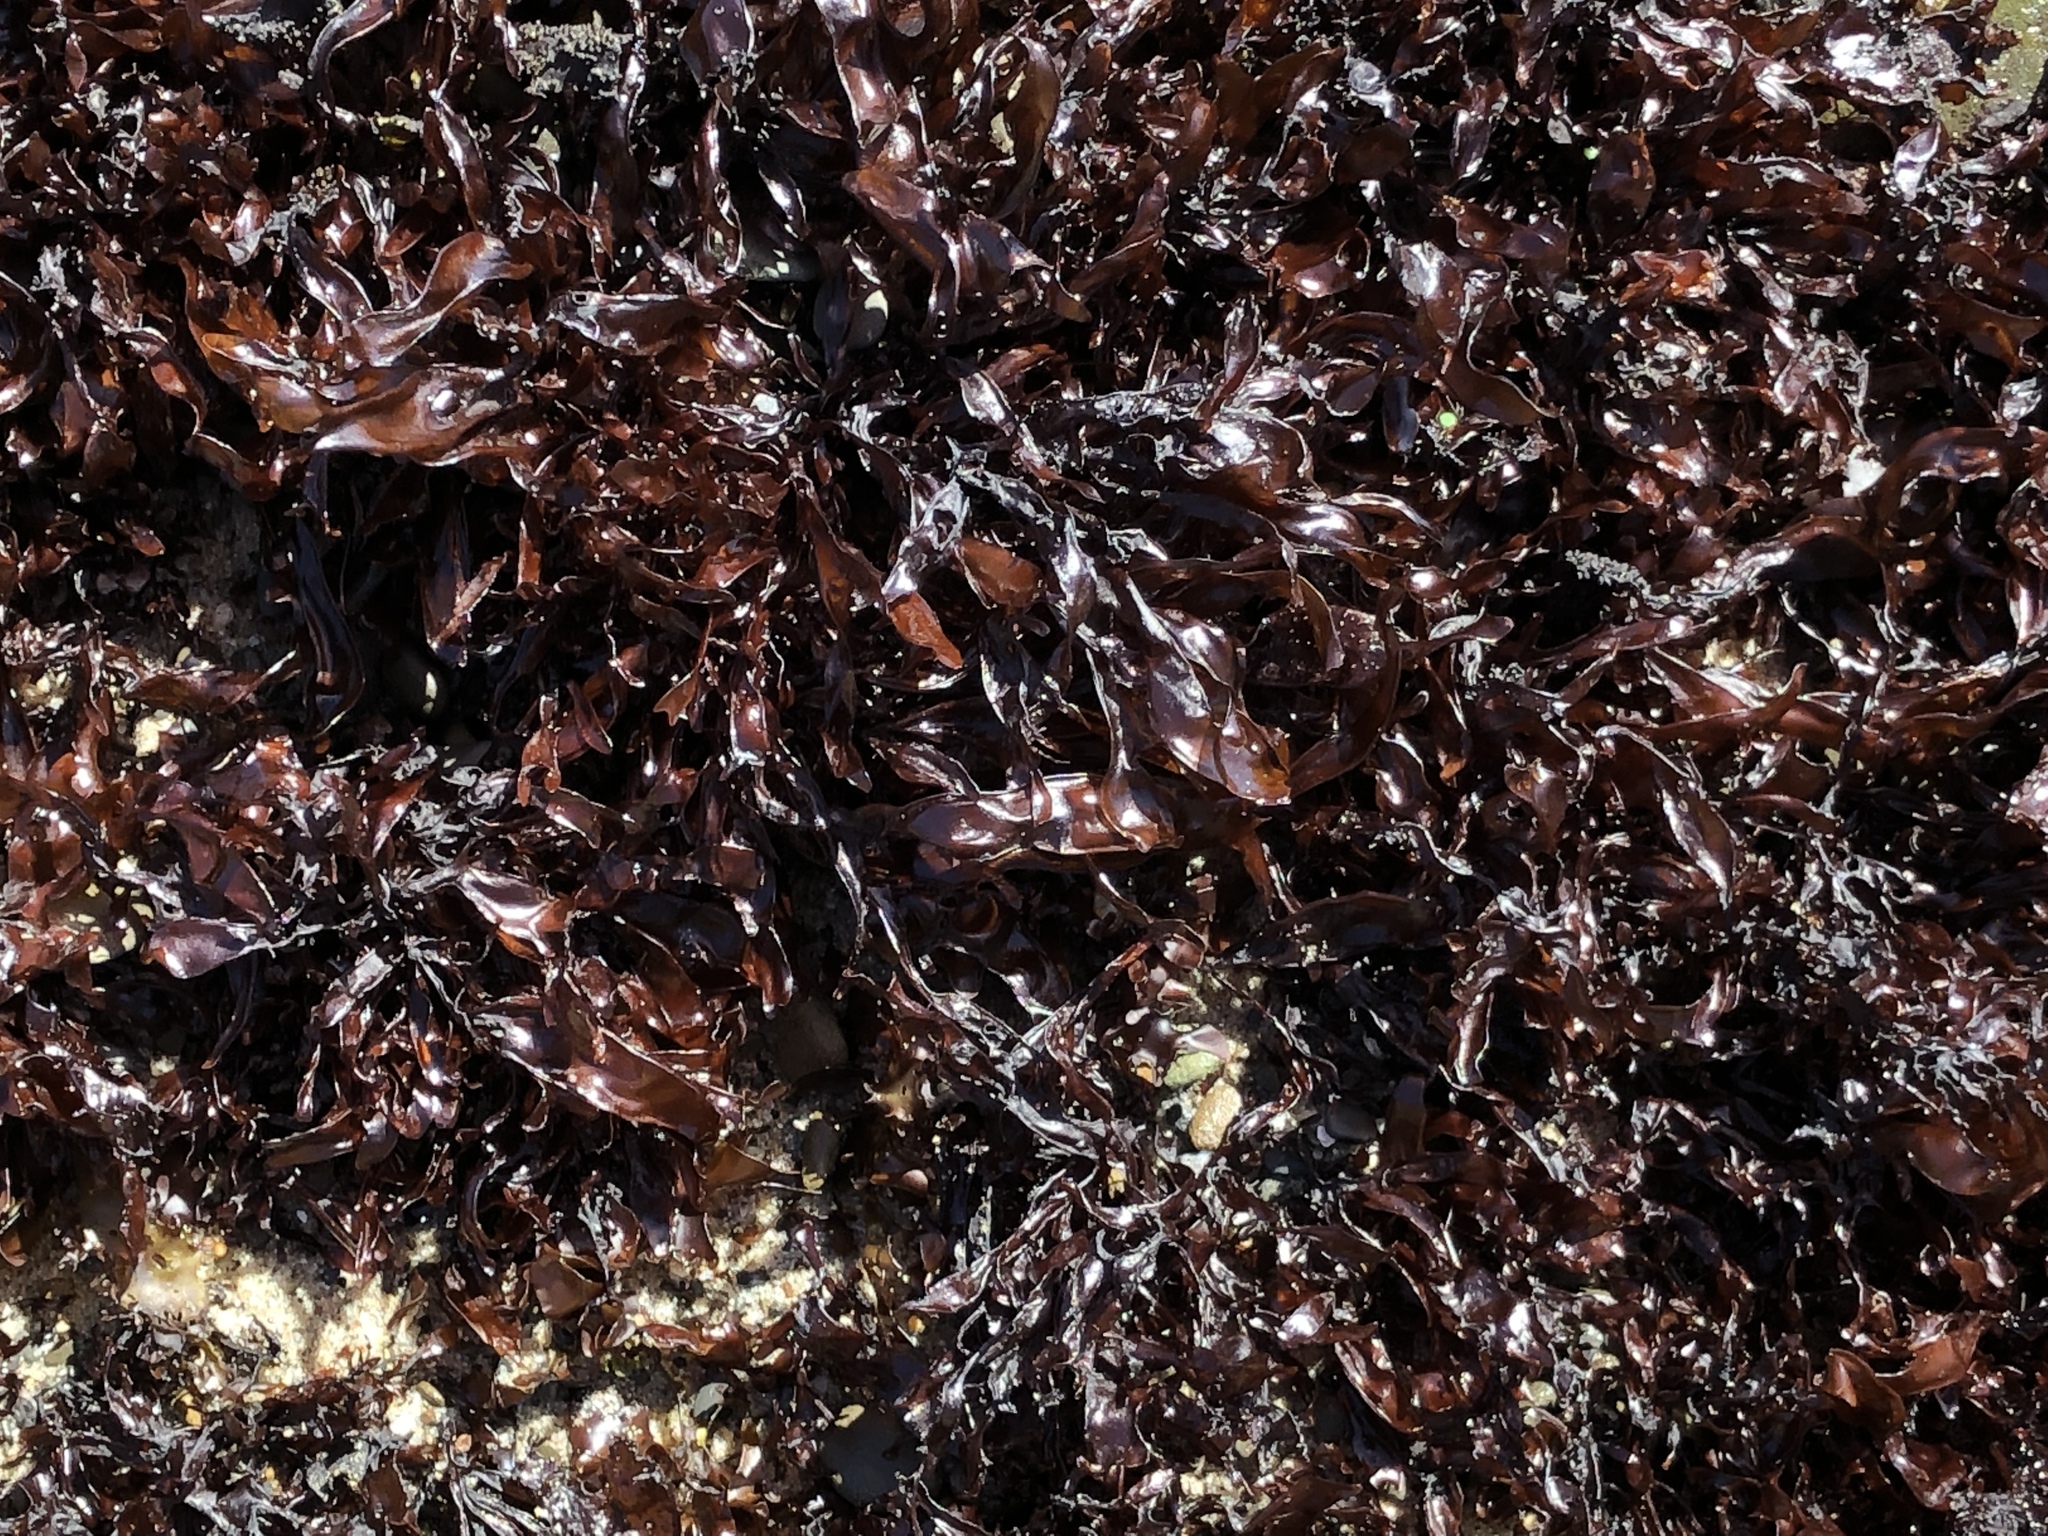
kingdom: Plantae
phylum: Rhodophyta
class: Florideophyceae
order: Gigartinales
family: Phyllophoraceae
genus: Mastocarpus
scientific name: Mastocarpus jardinii
